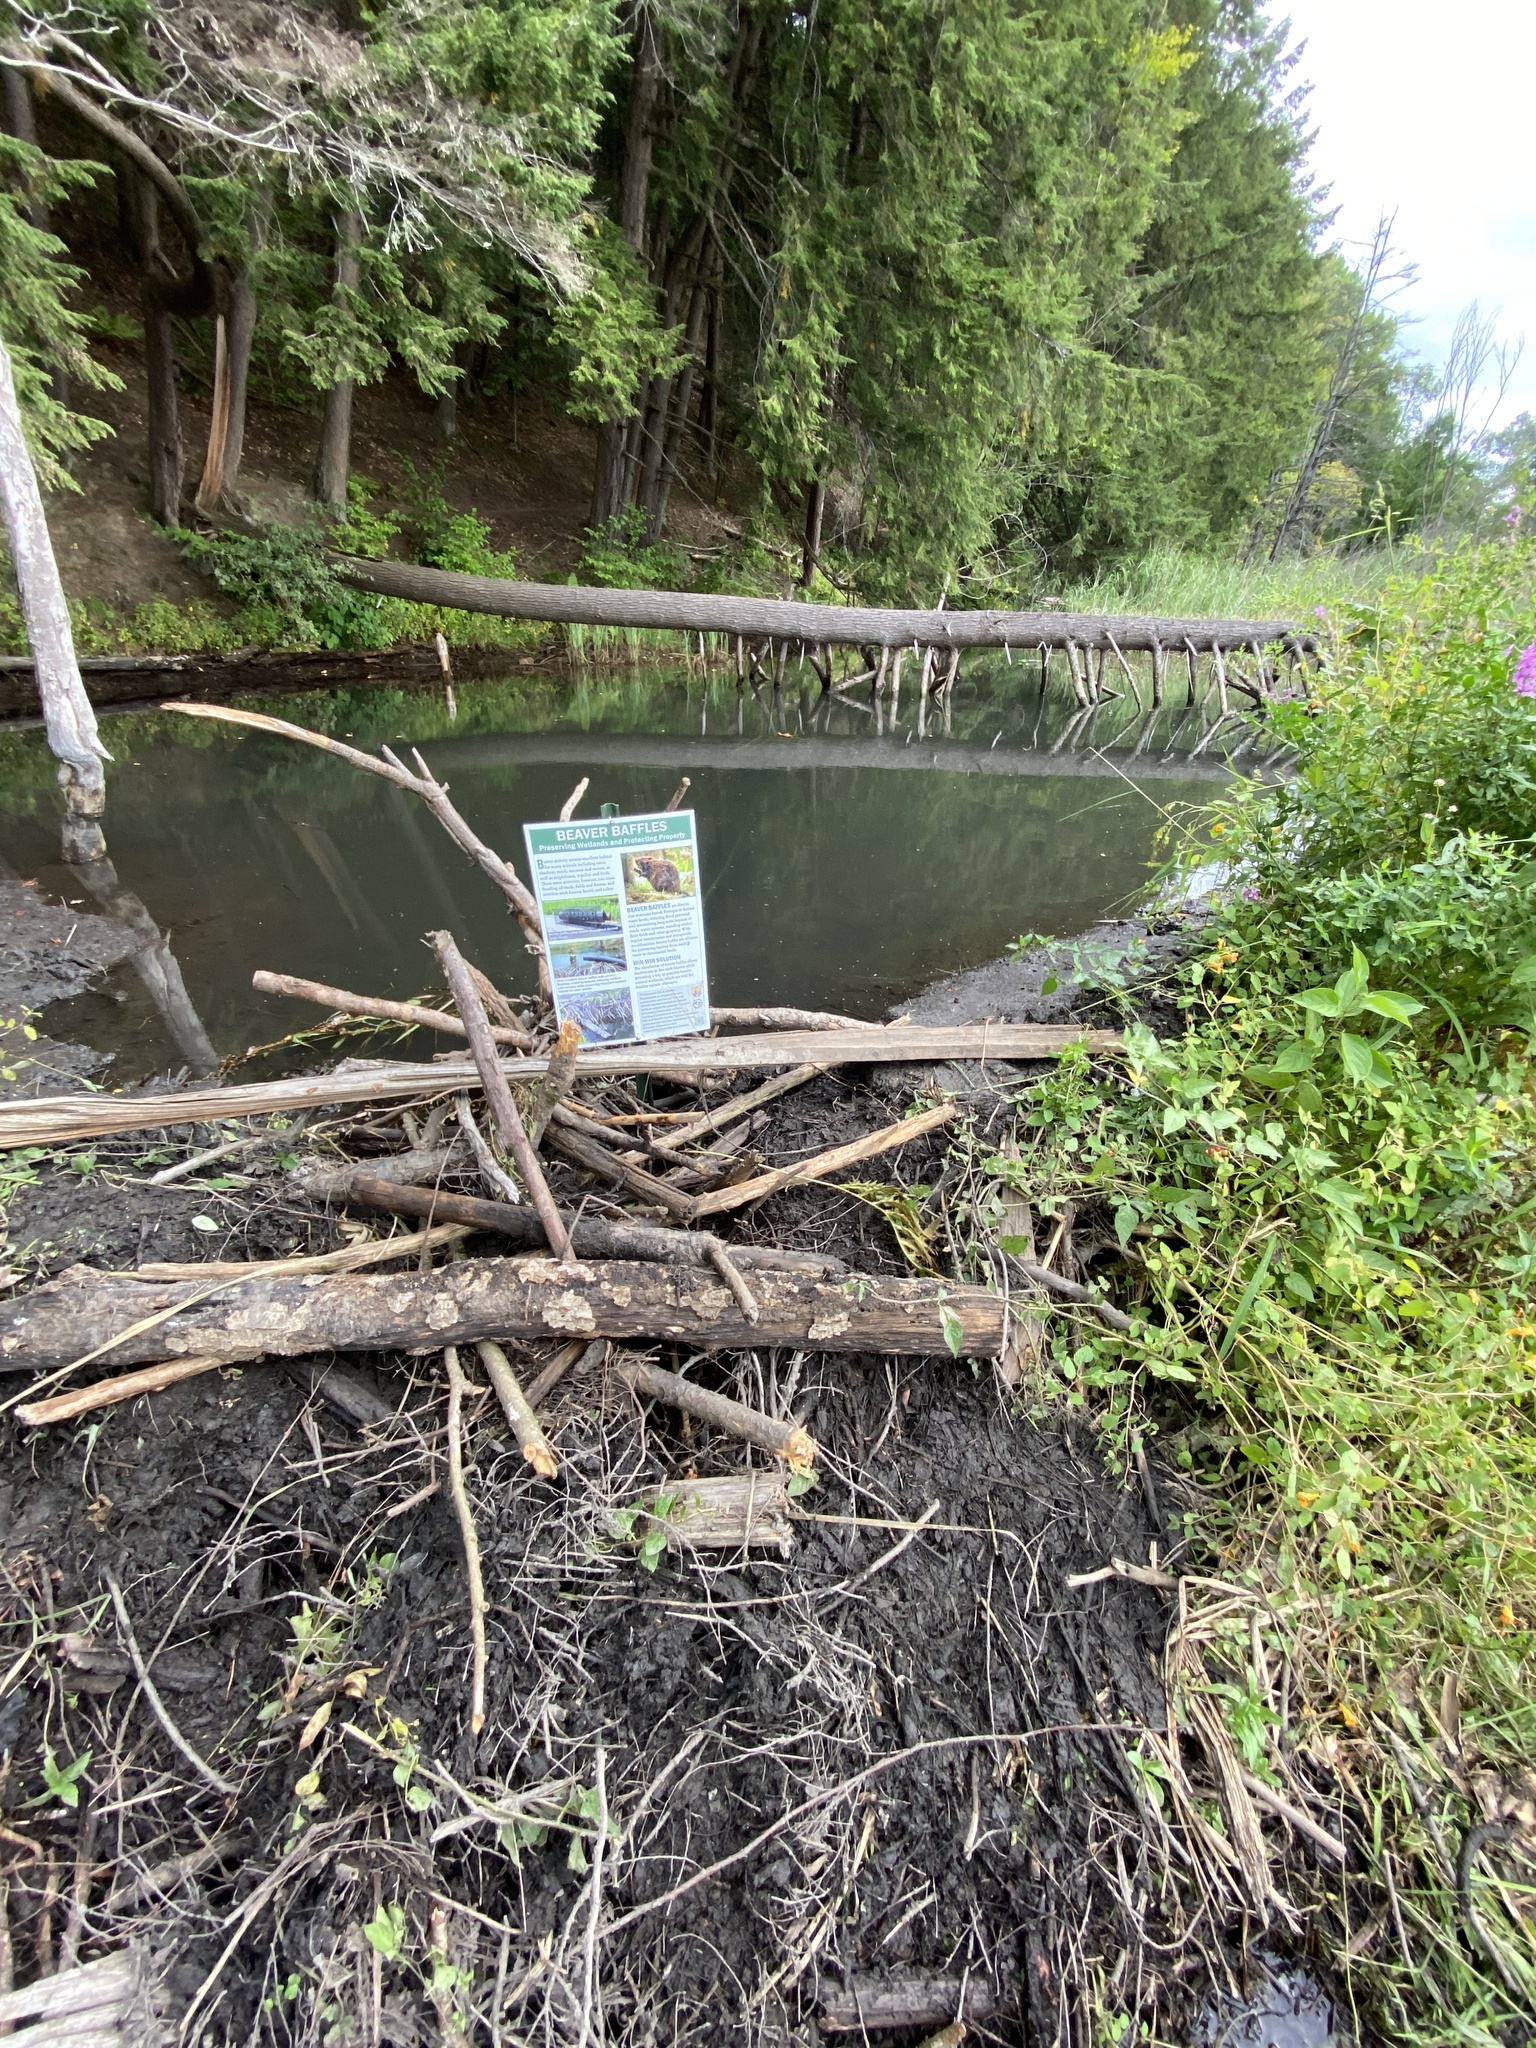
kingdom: Animalia
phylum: Chordata
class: Mammalia
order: Rodentia
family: Castoridae
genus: Castor
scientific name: Castor canadensis
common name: American beaver
